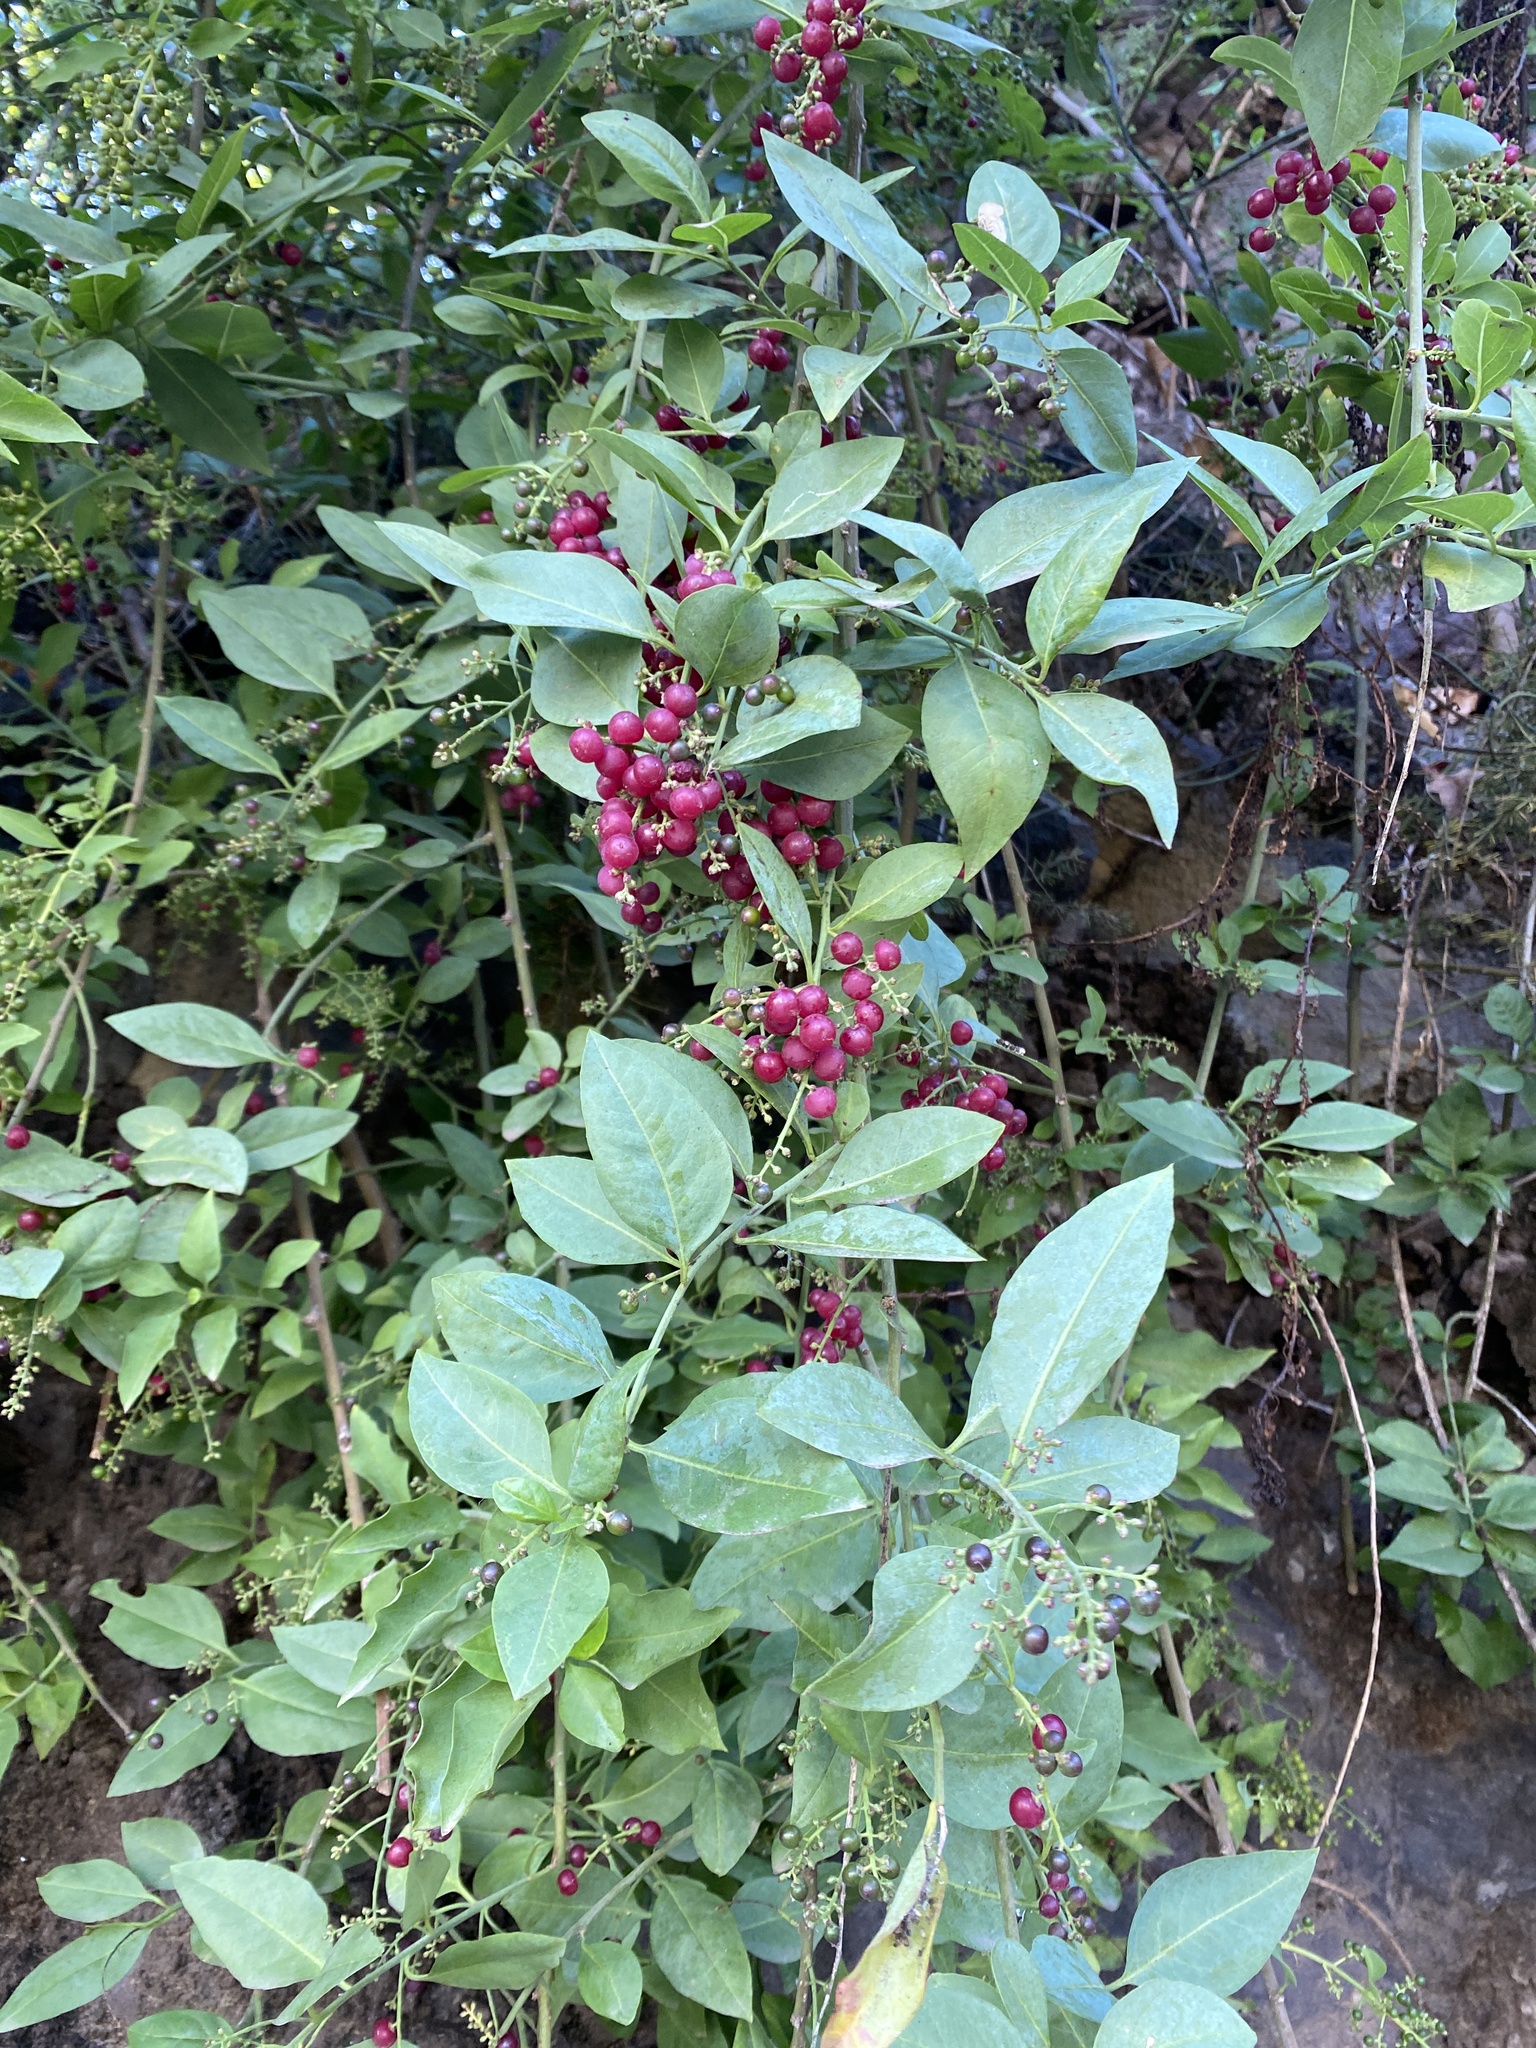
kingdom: Plantae
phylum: Tracheophyta
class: Magnoliopsida
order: Caryophyllales
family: Amaranthaceae
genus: Bosea
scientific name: Bosea yervamora
